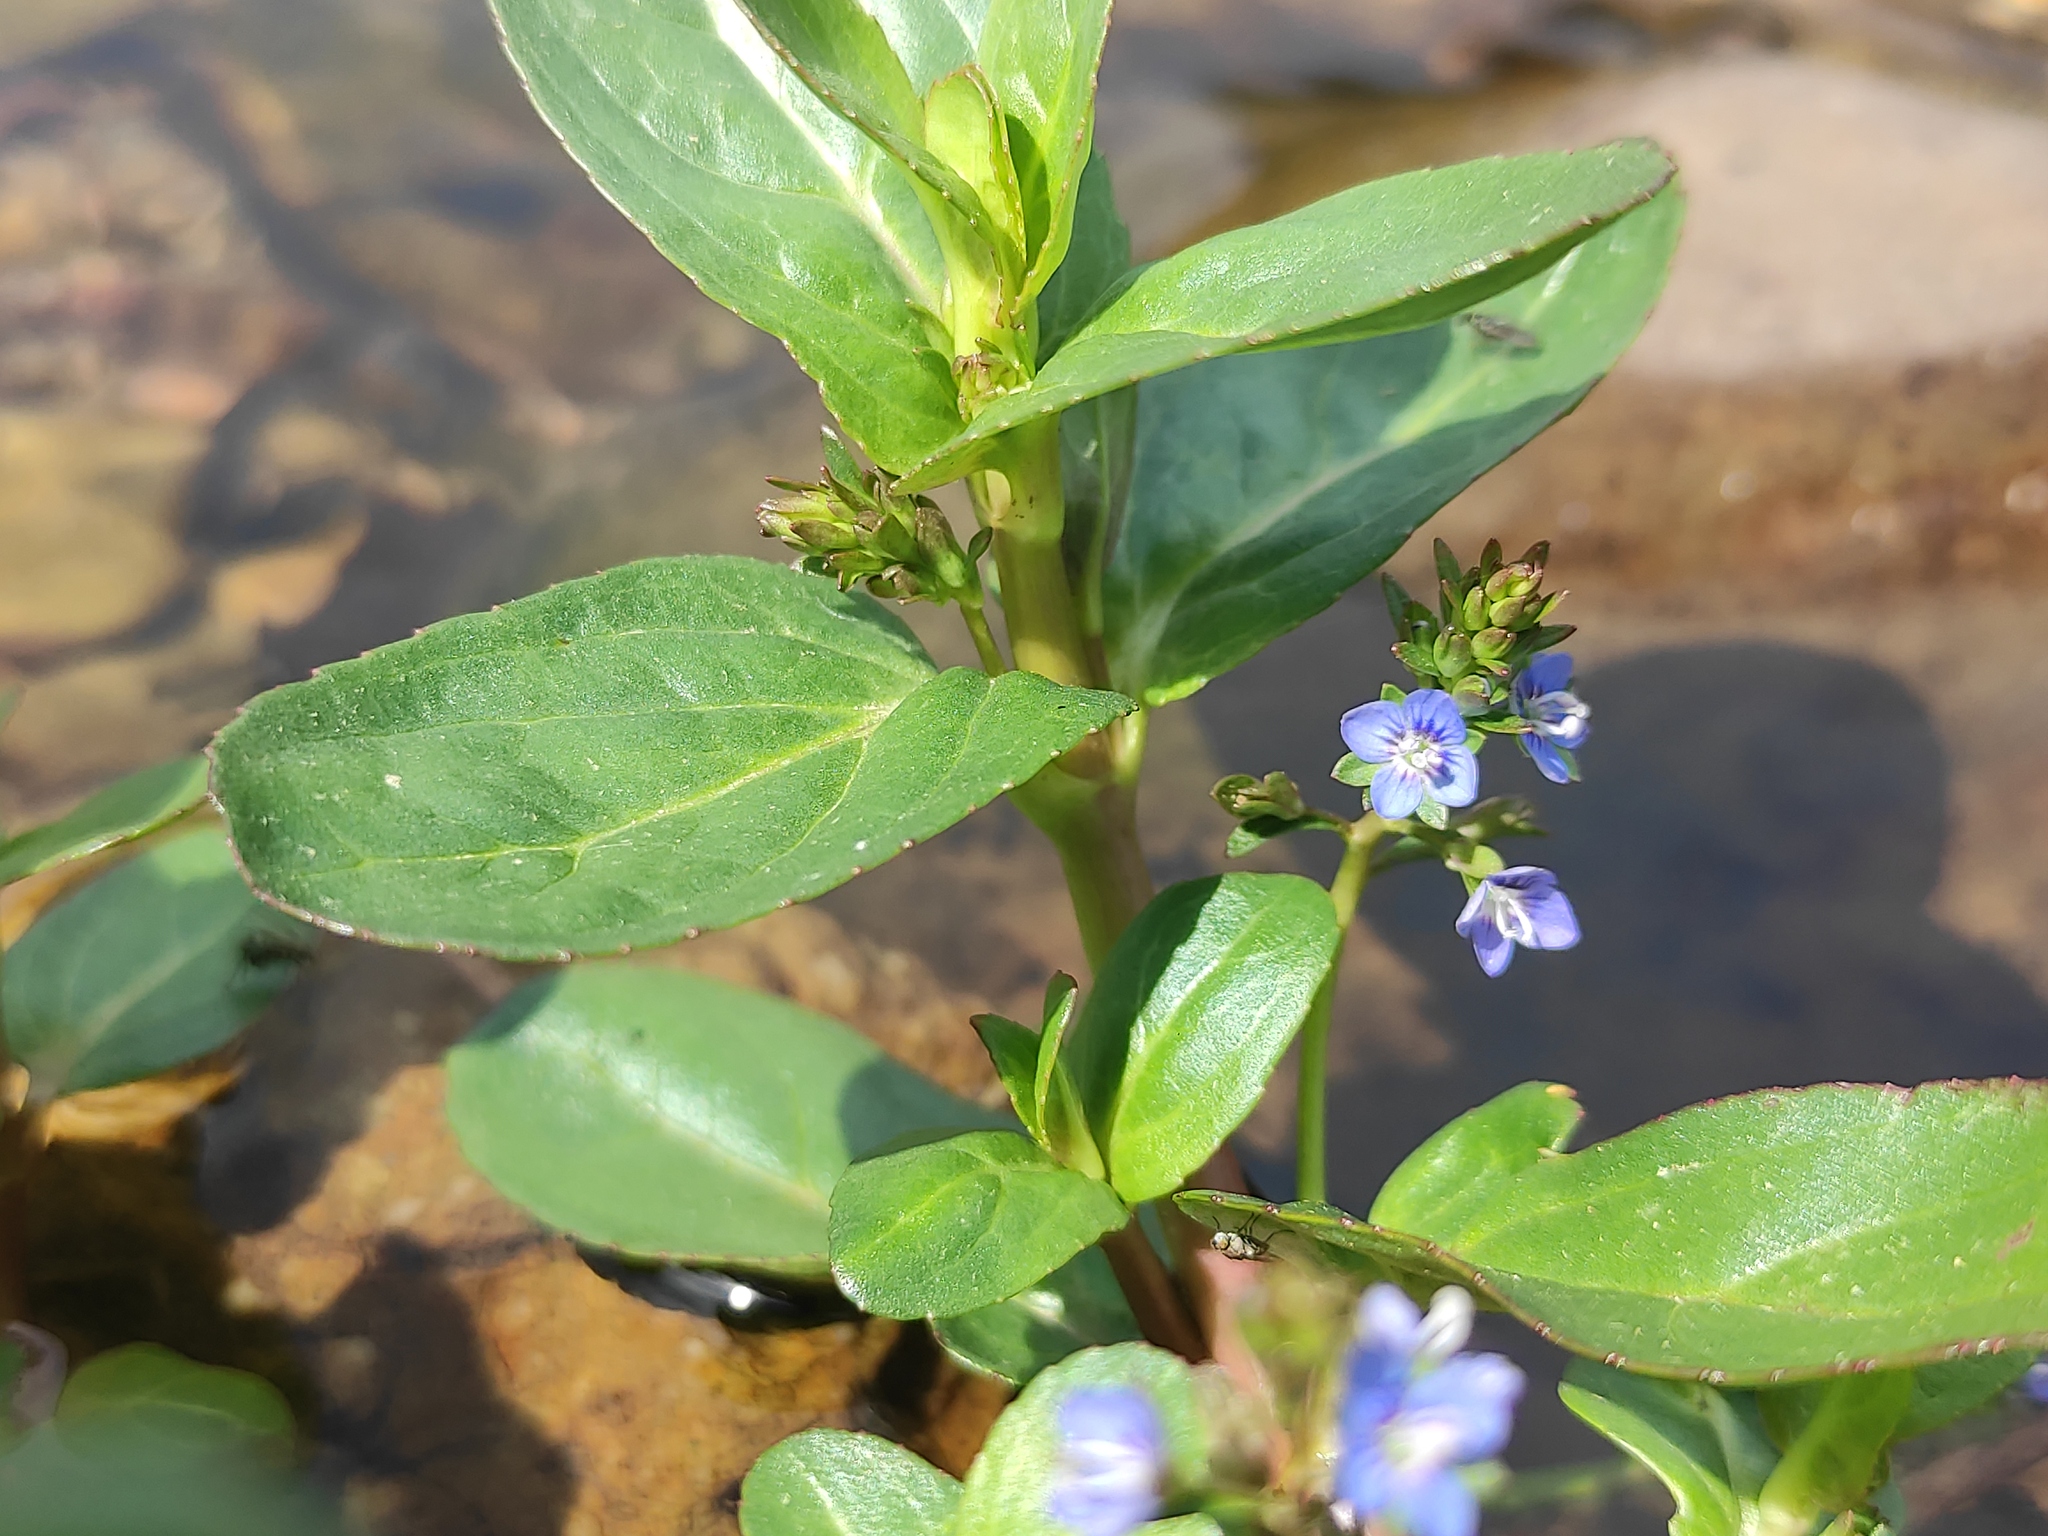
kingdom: Plantae
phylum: Tracheophyta
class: Magnoliopsida
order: Lamiales
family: Plantaginaceae
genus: Veronica
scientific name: Veronica beccabunga
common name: Brooklime
